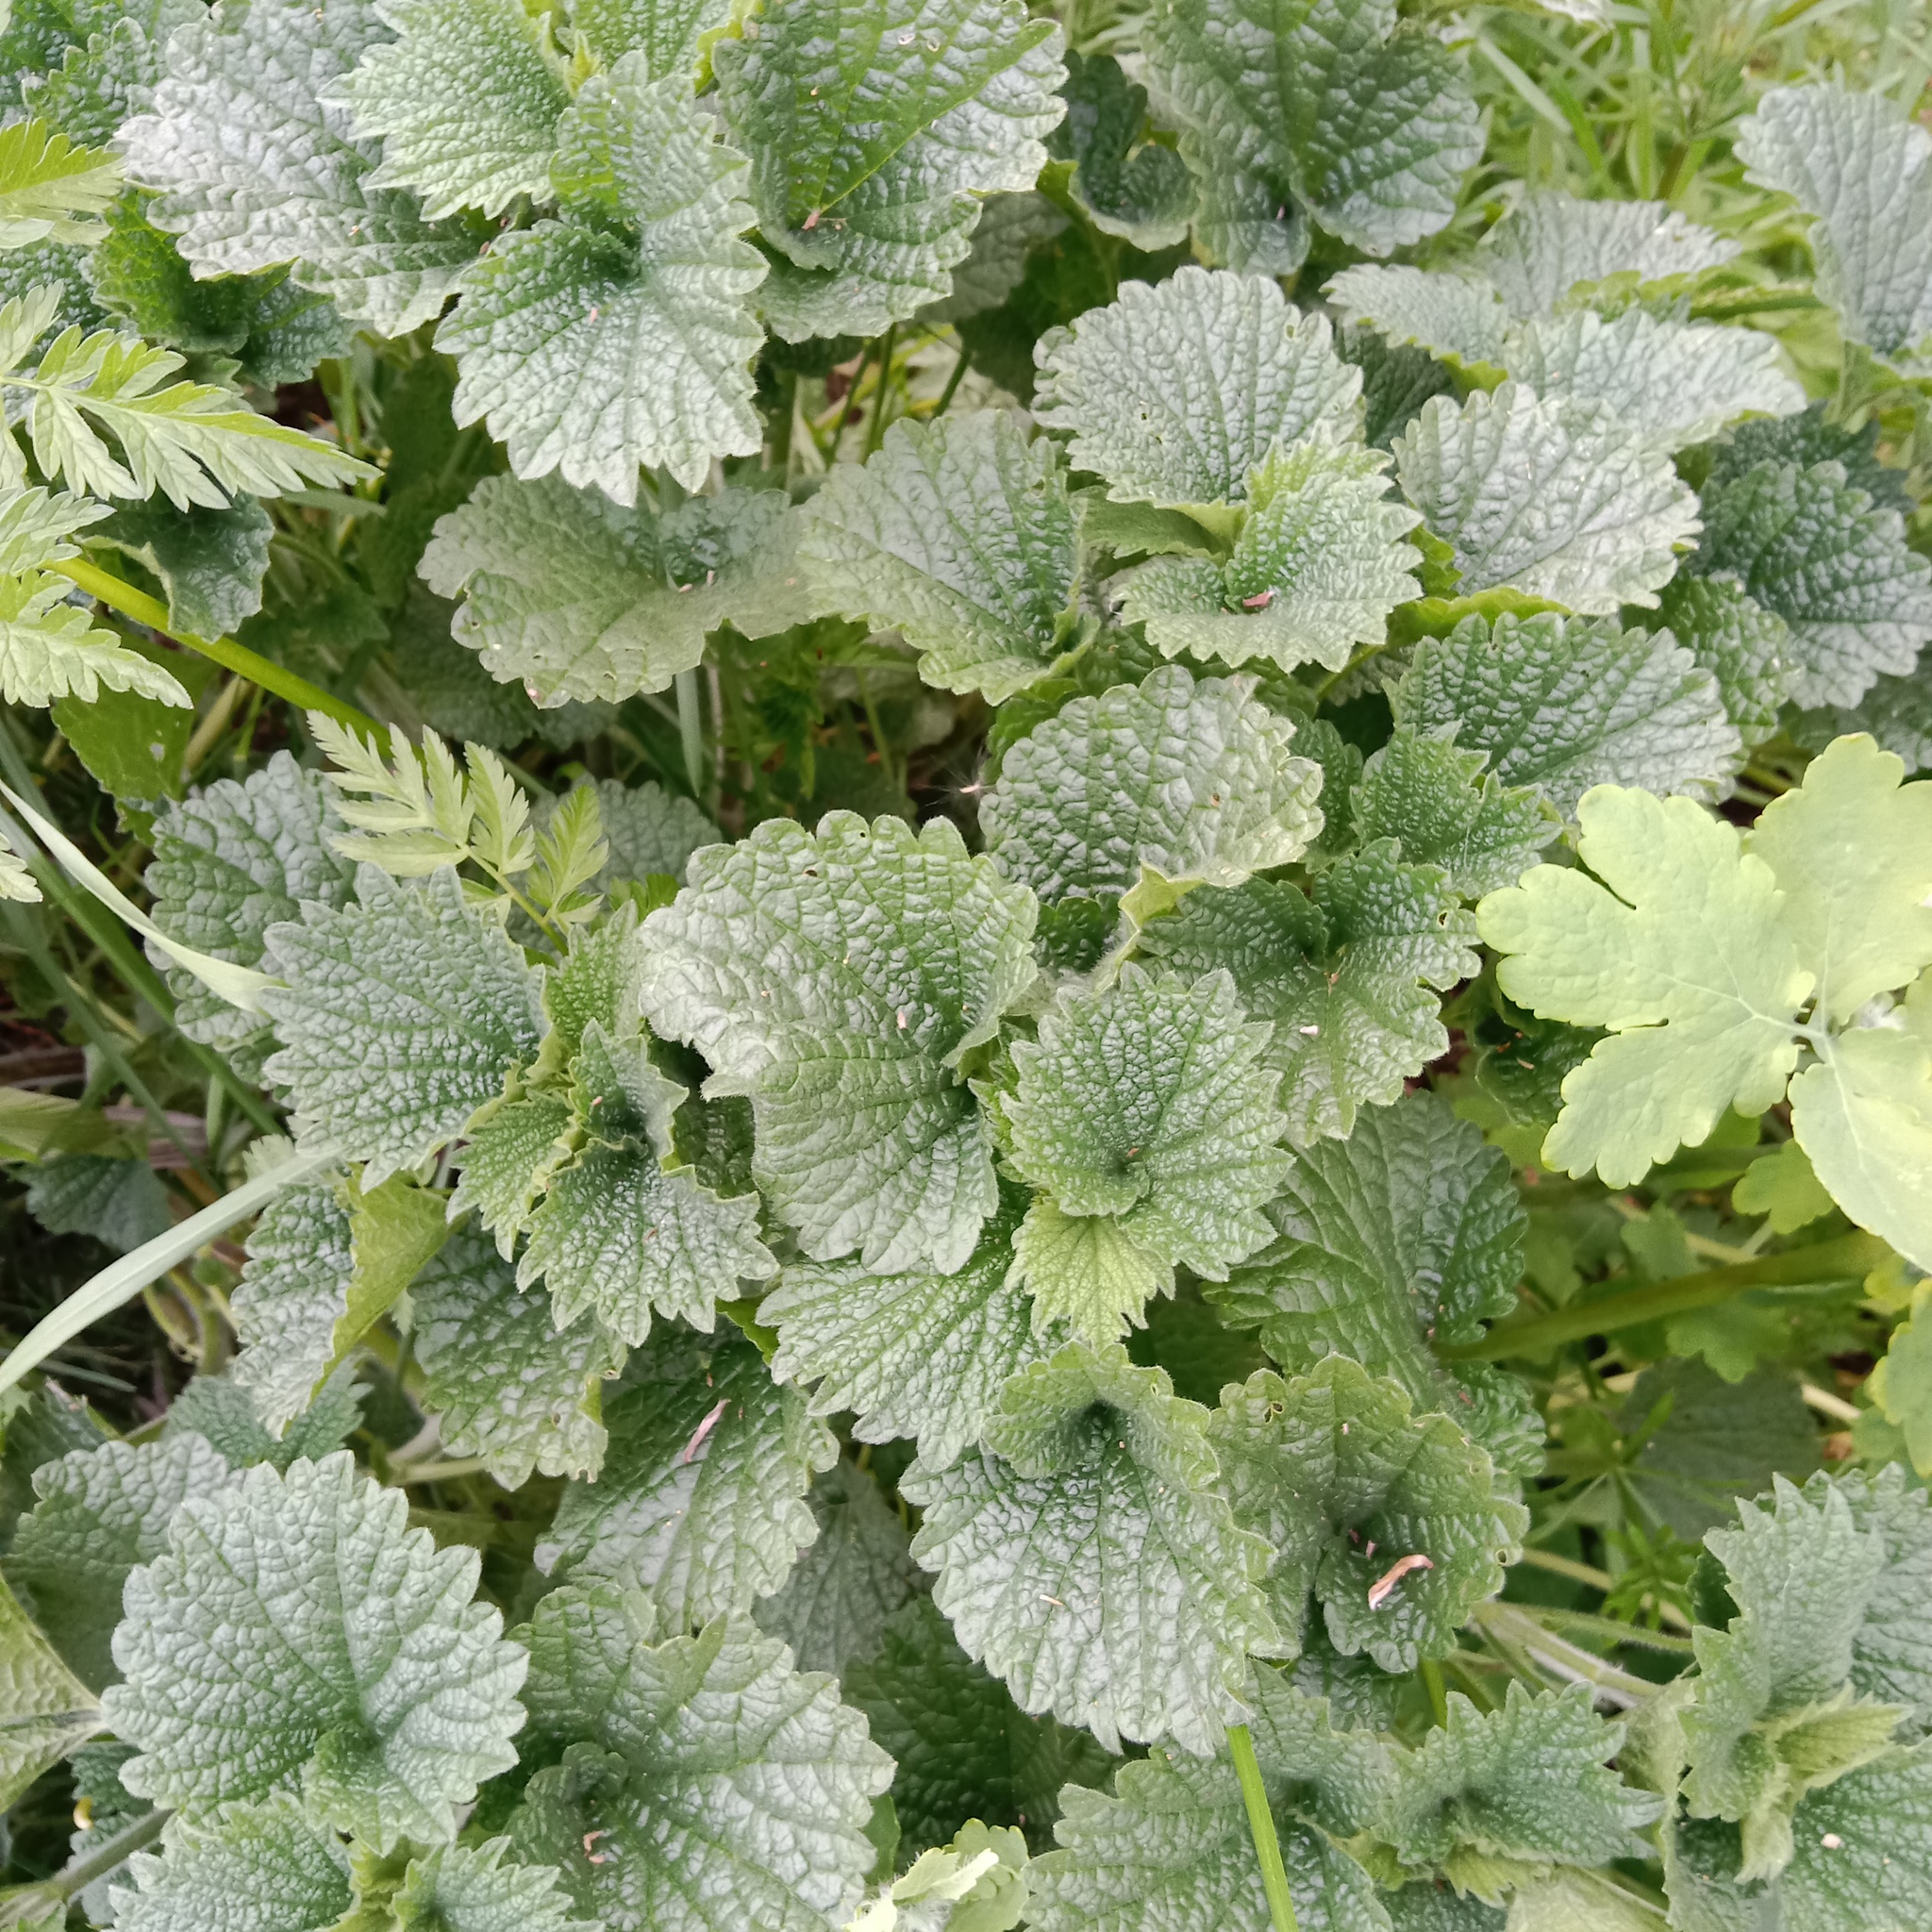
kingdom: Plantae
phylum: Tracheophyta
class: Magnoliopsida
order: Lamiales
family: Lamiaceae
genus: Ballota
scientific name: Ballota nigra
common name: Black horehound
